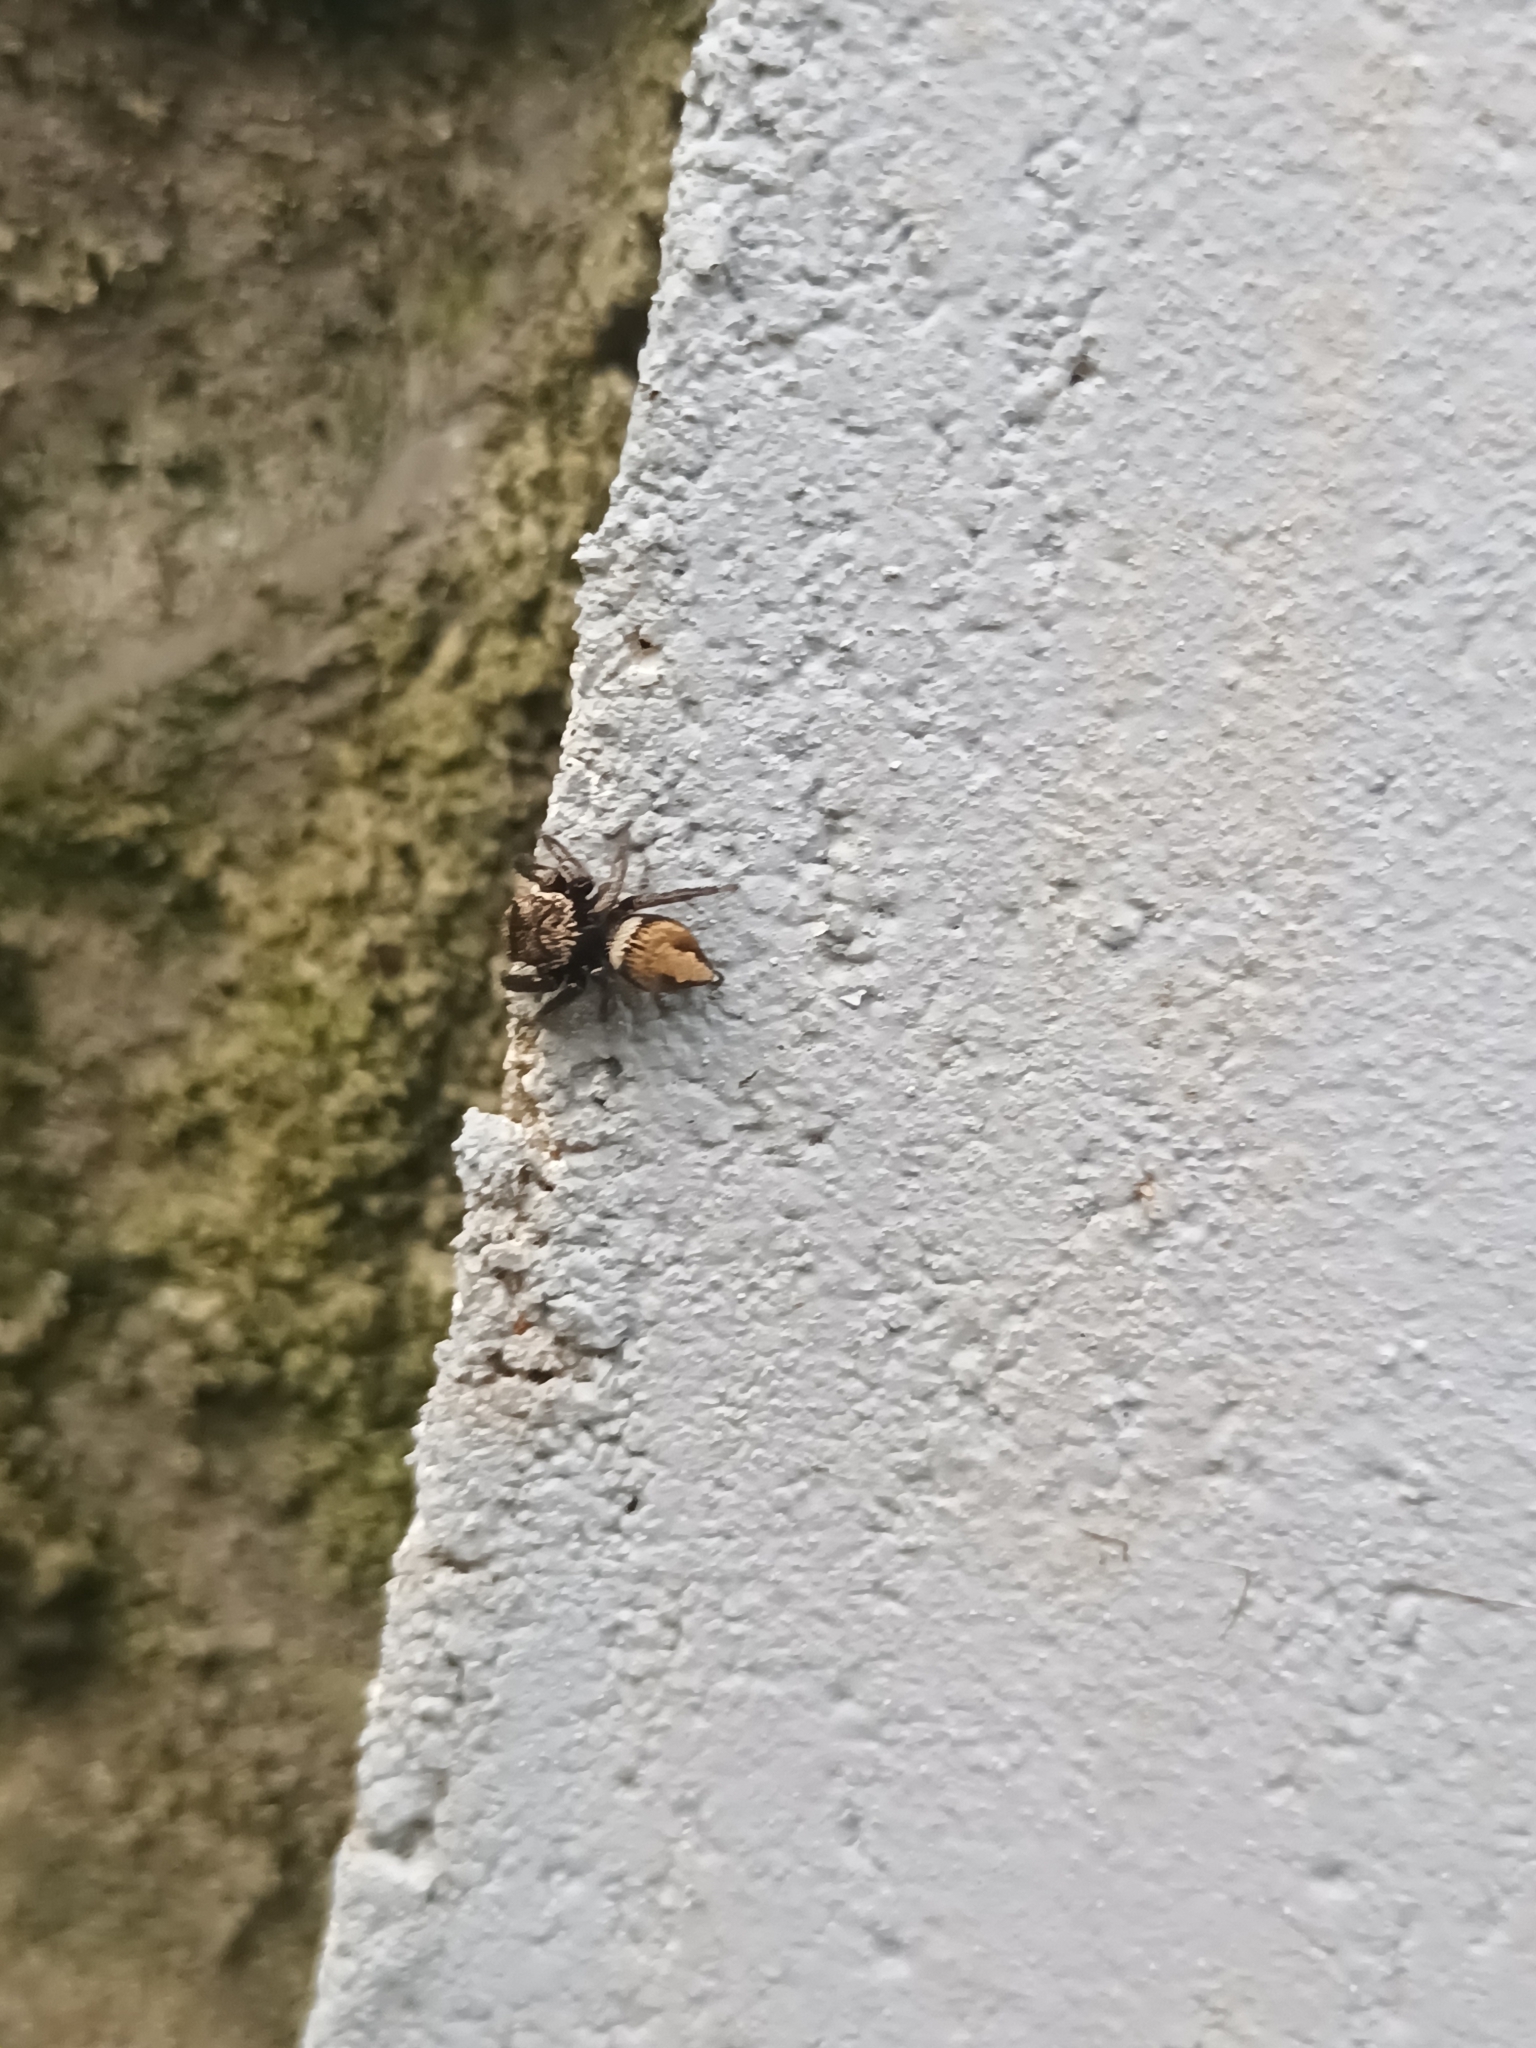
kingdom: Animalia
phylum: Arthropoda
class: Arachnida
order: Araneae
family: Salticidae
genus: Hasarius
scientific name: Hasarius adansoni
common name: Jumping spider
